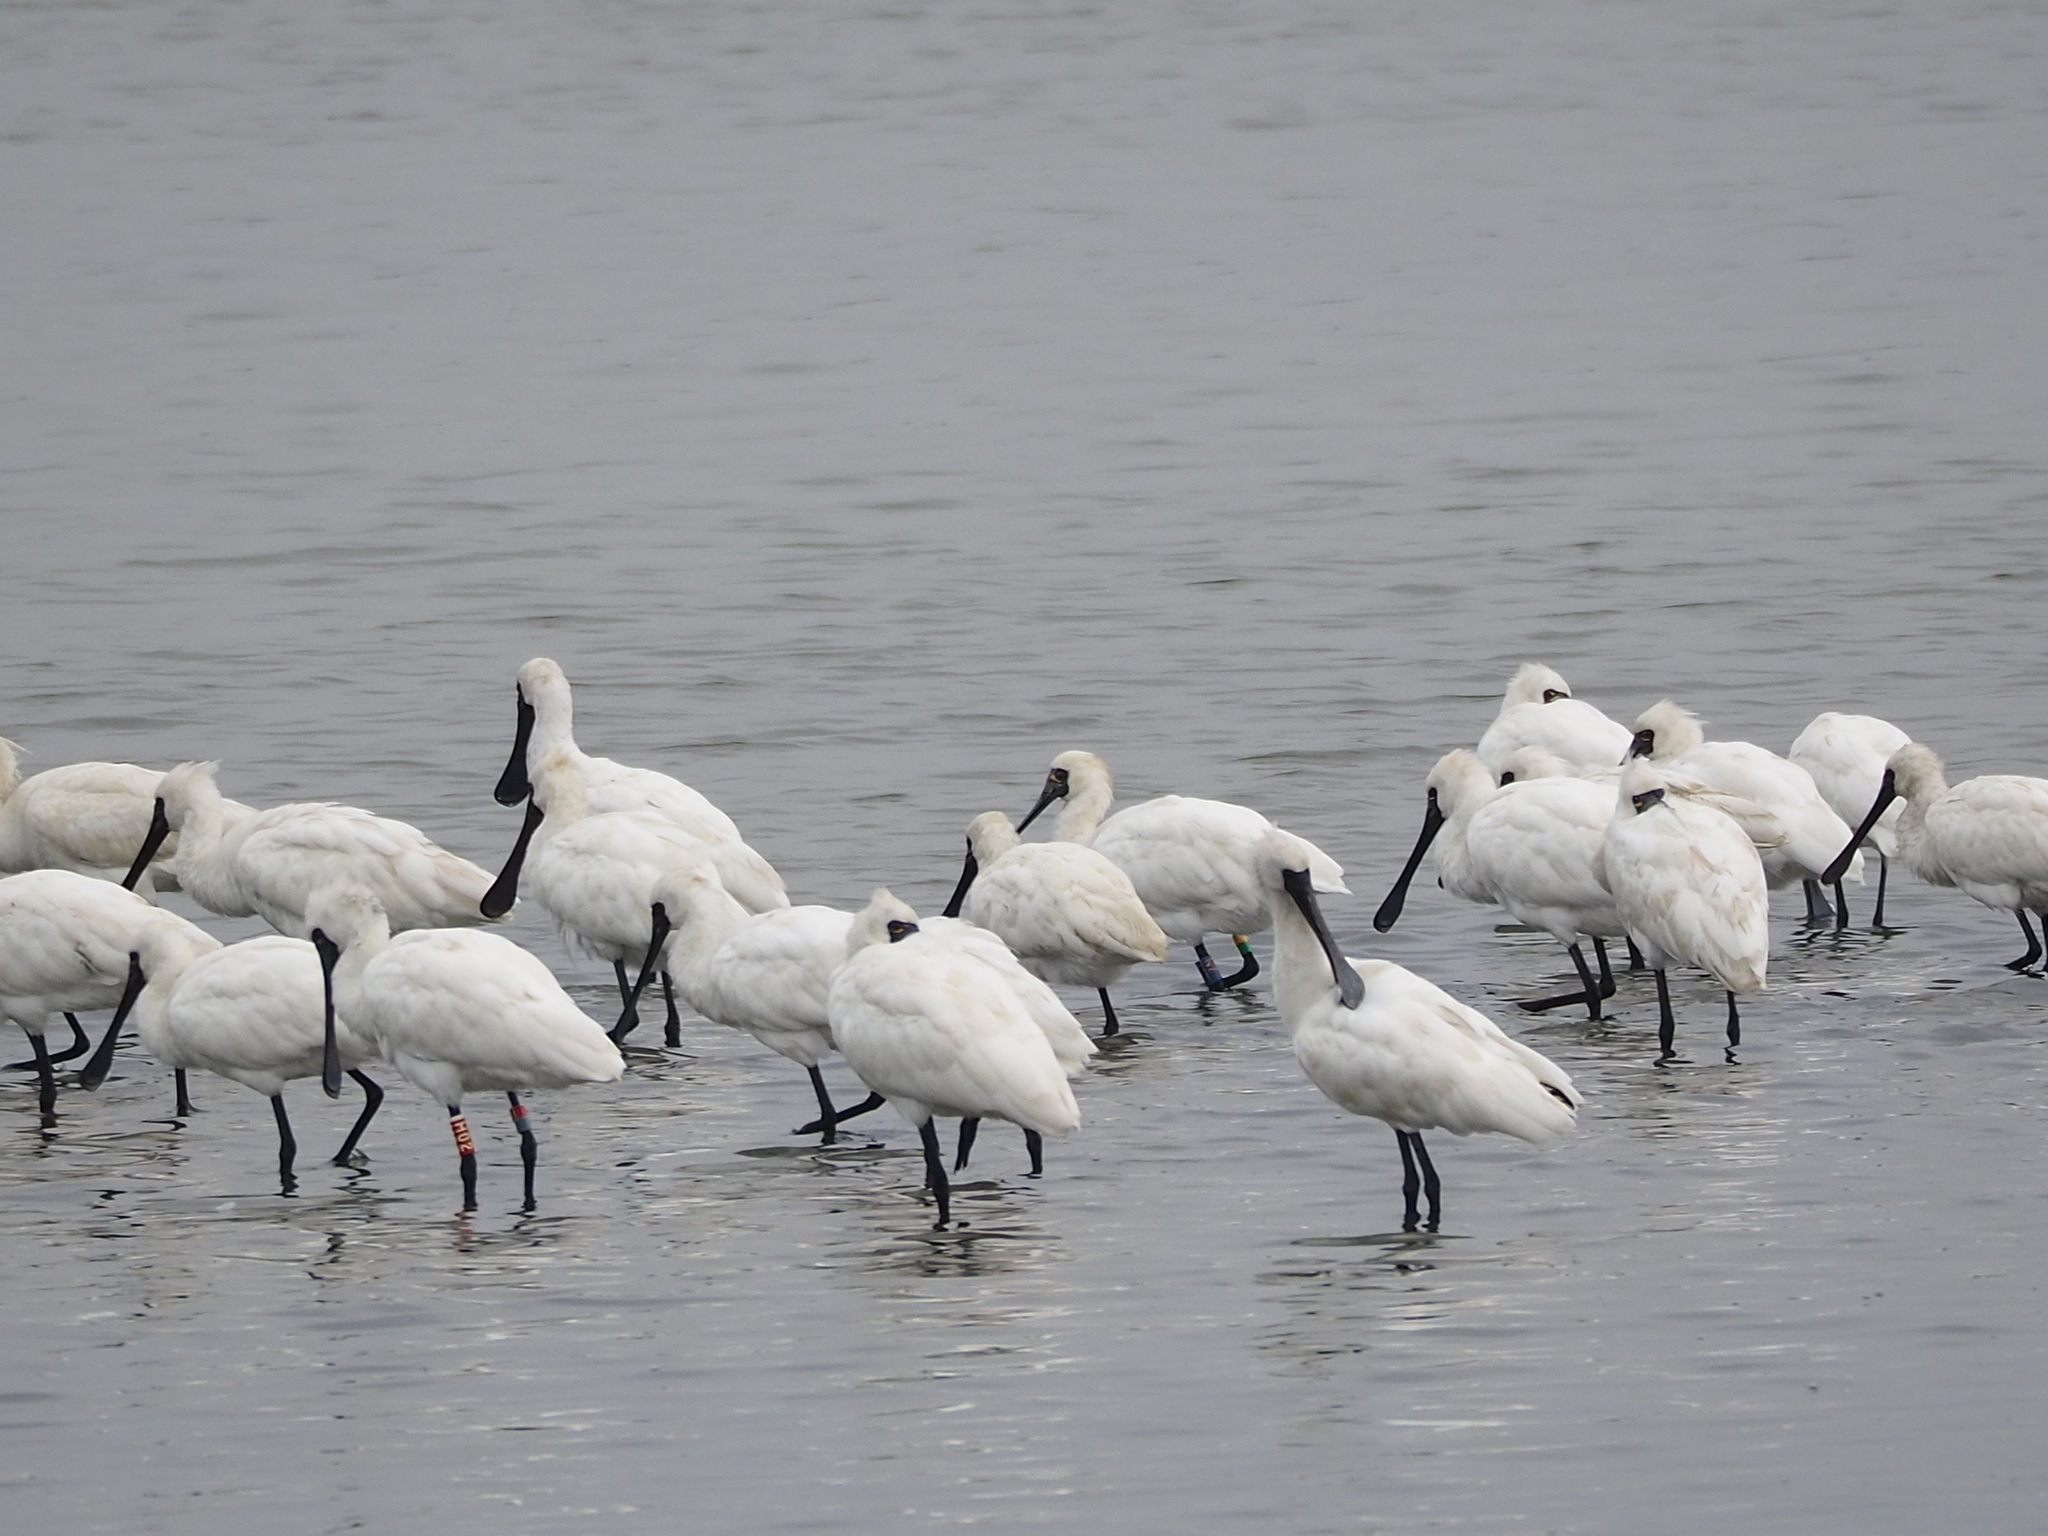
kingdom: Animalia
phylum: Chordata
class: Aves
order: Pelecaniformes
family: Threskiornithidae
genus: Platalea
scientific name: Platalea minor
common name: Black-faced spoonbill
